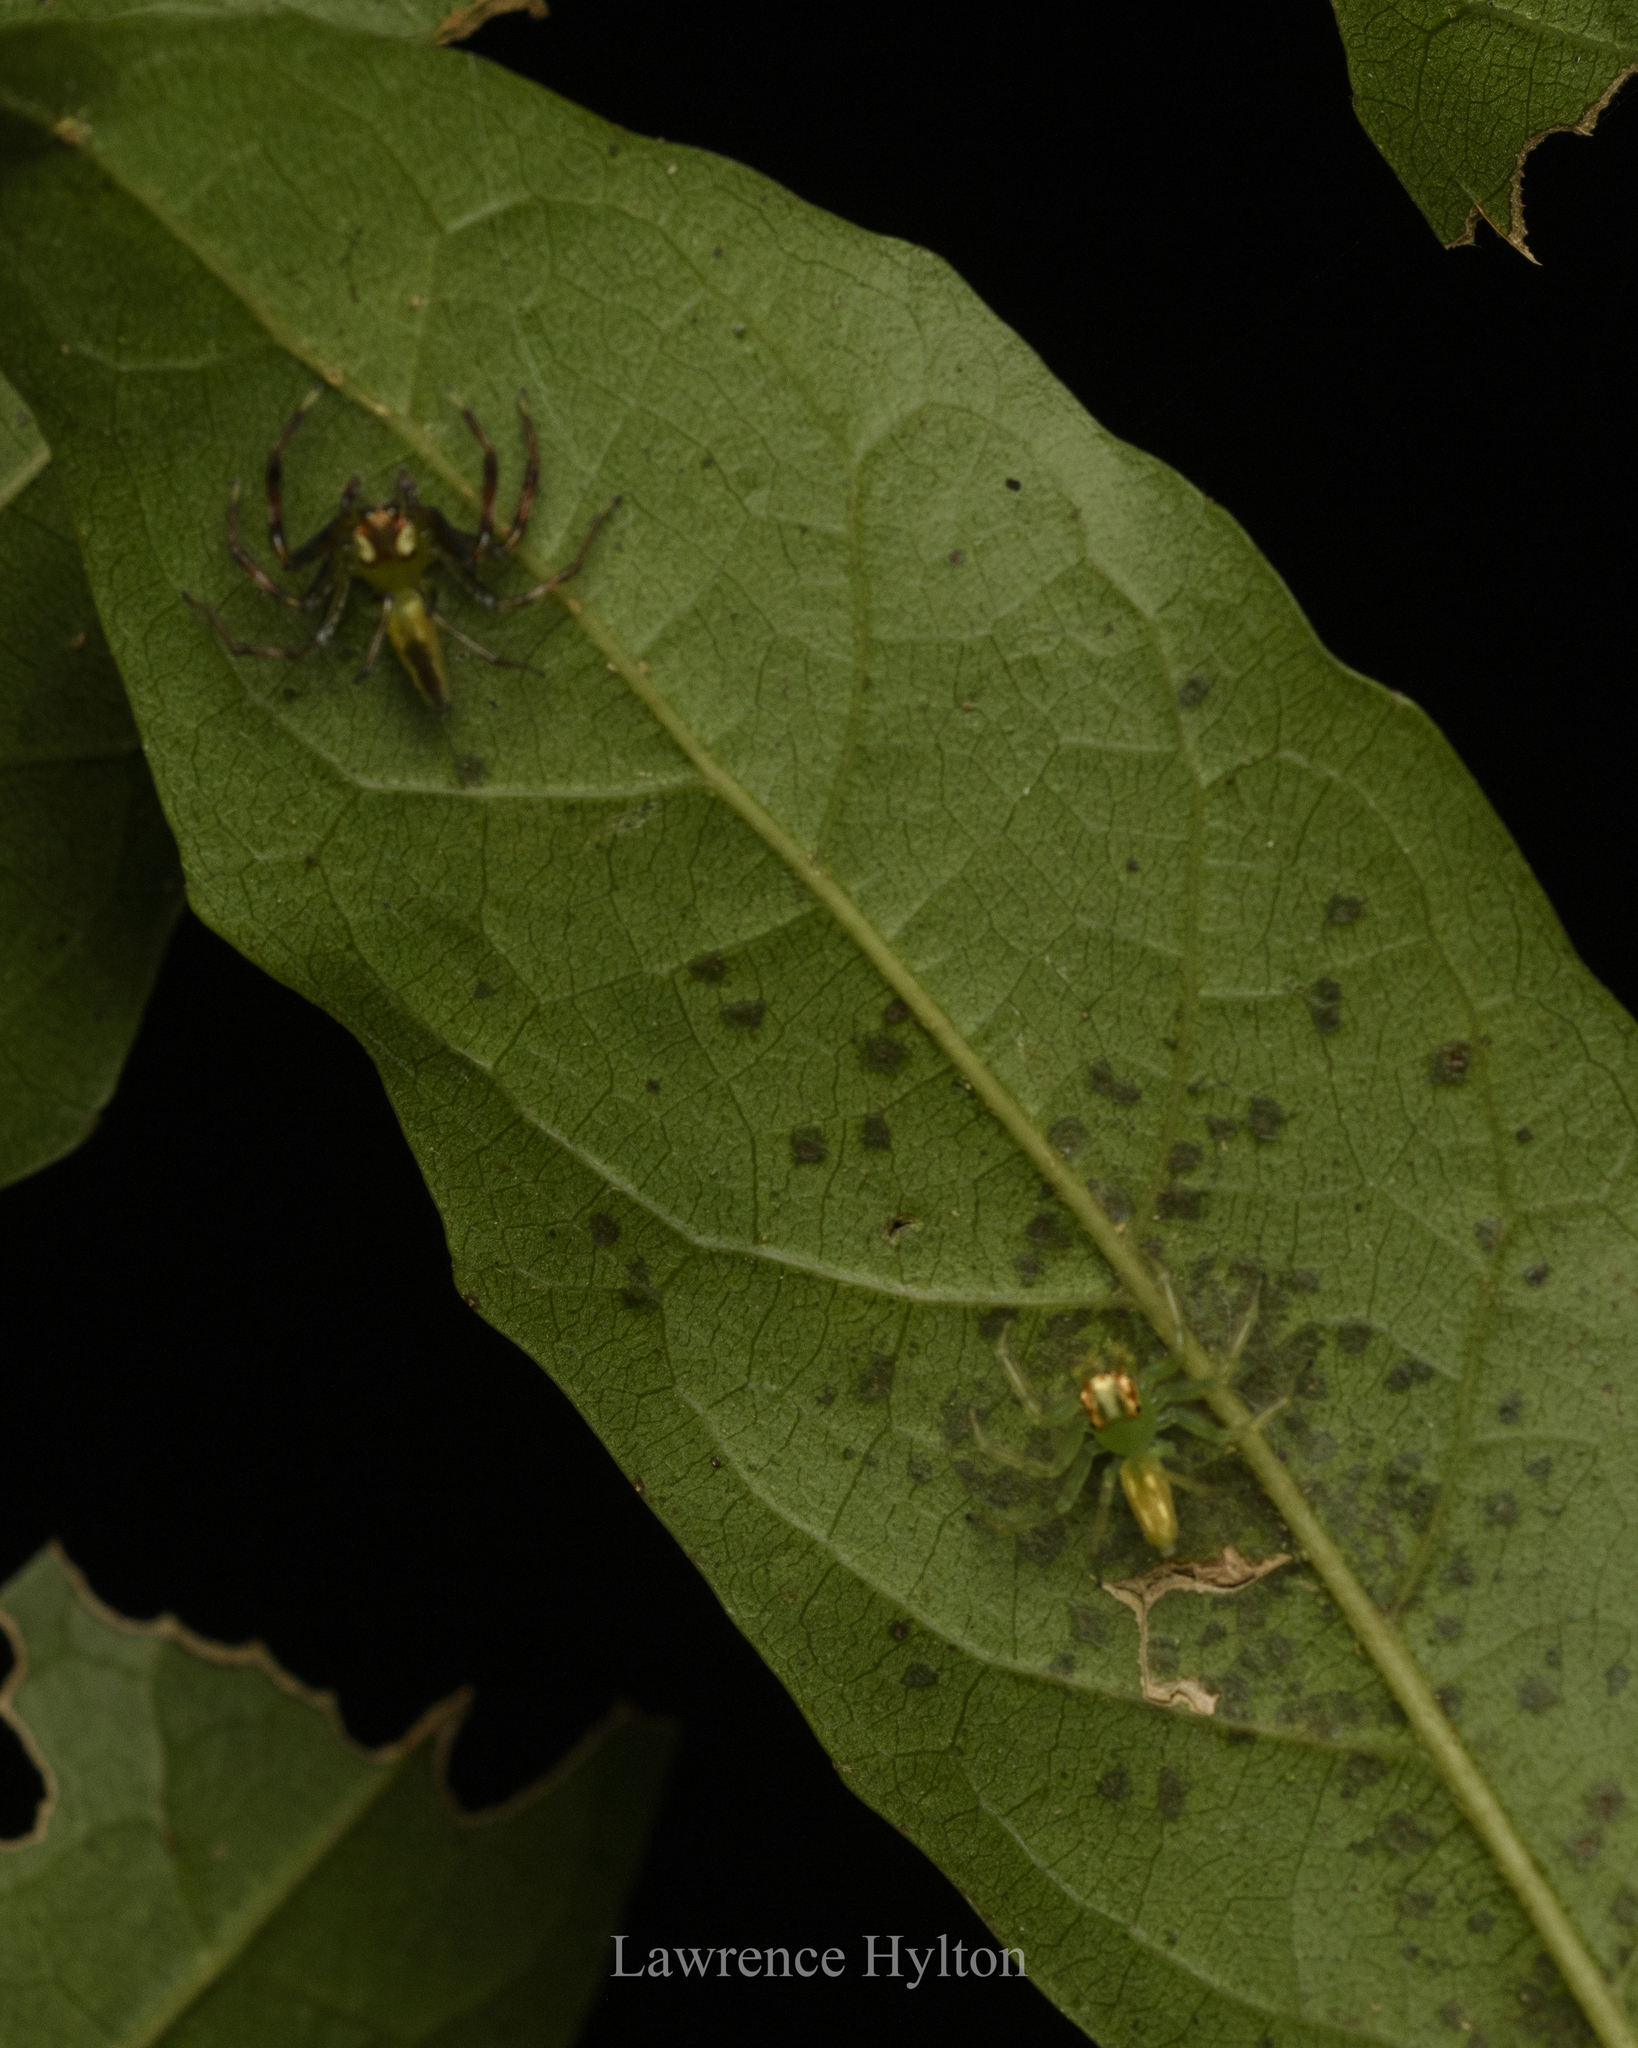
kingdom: Animalia
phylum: Arthropoda
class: Arachnida
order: Araneae
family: Salticidae
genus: Epeus
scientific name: Epeus glorius
